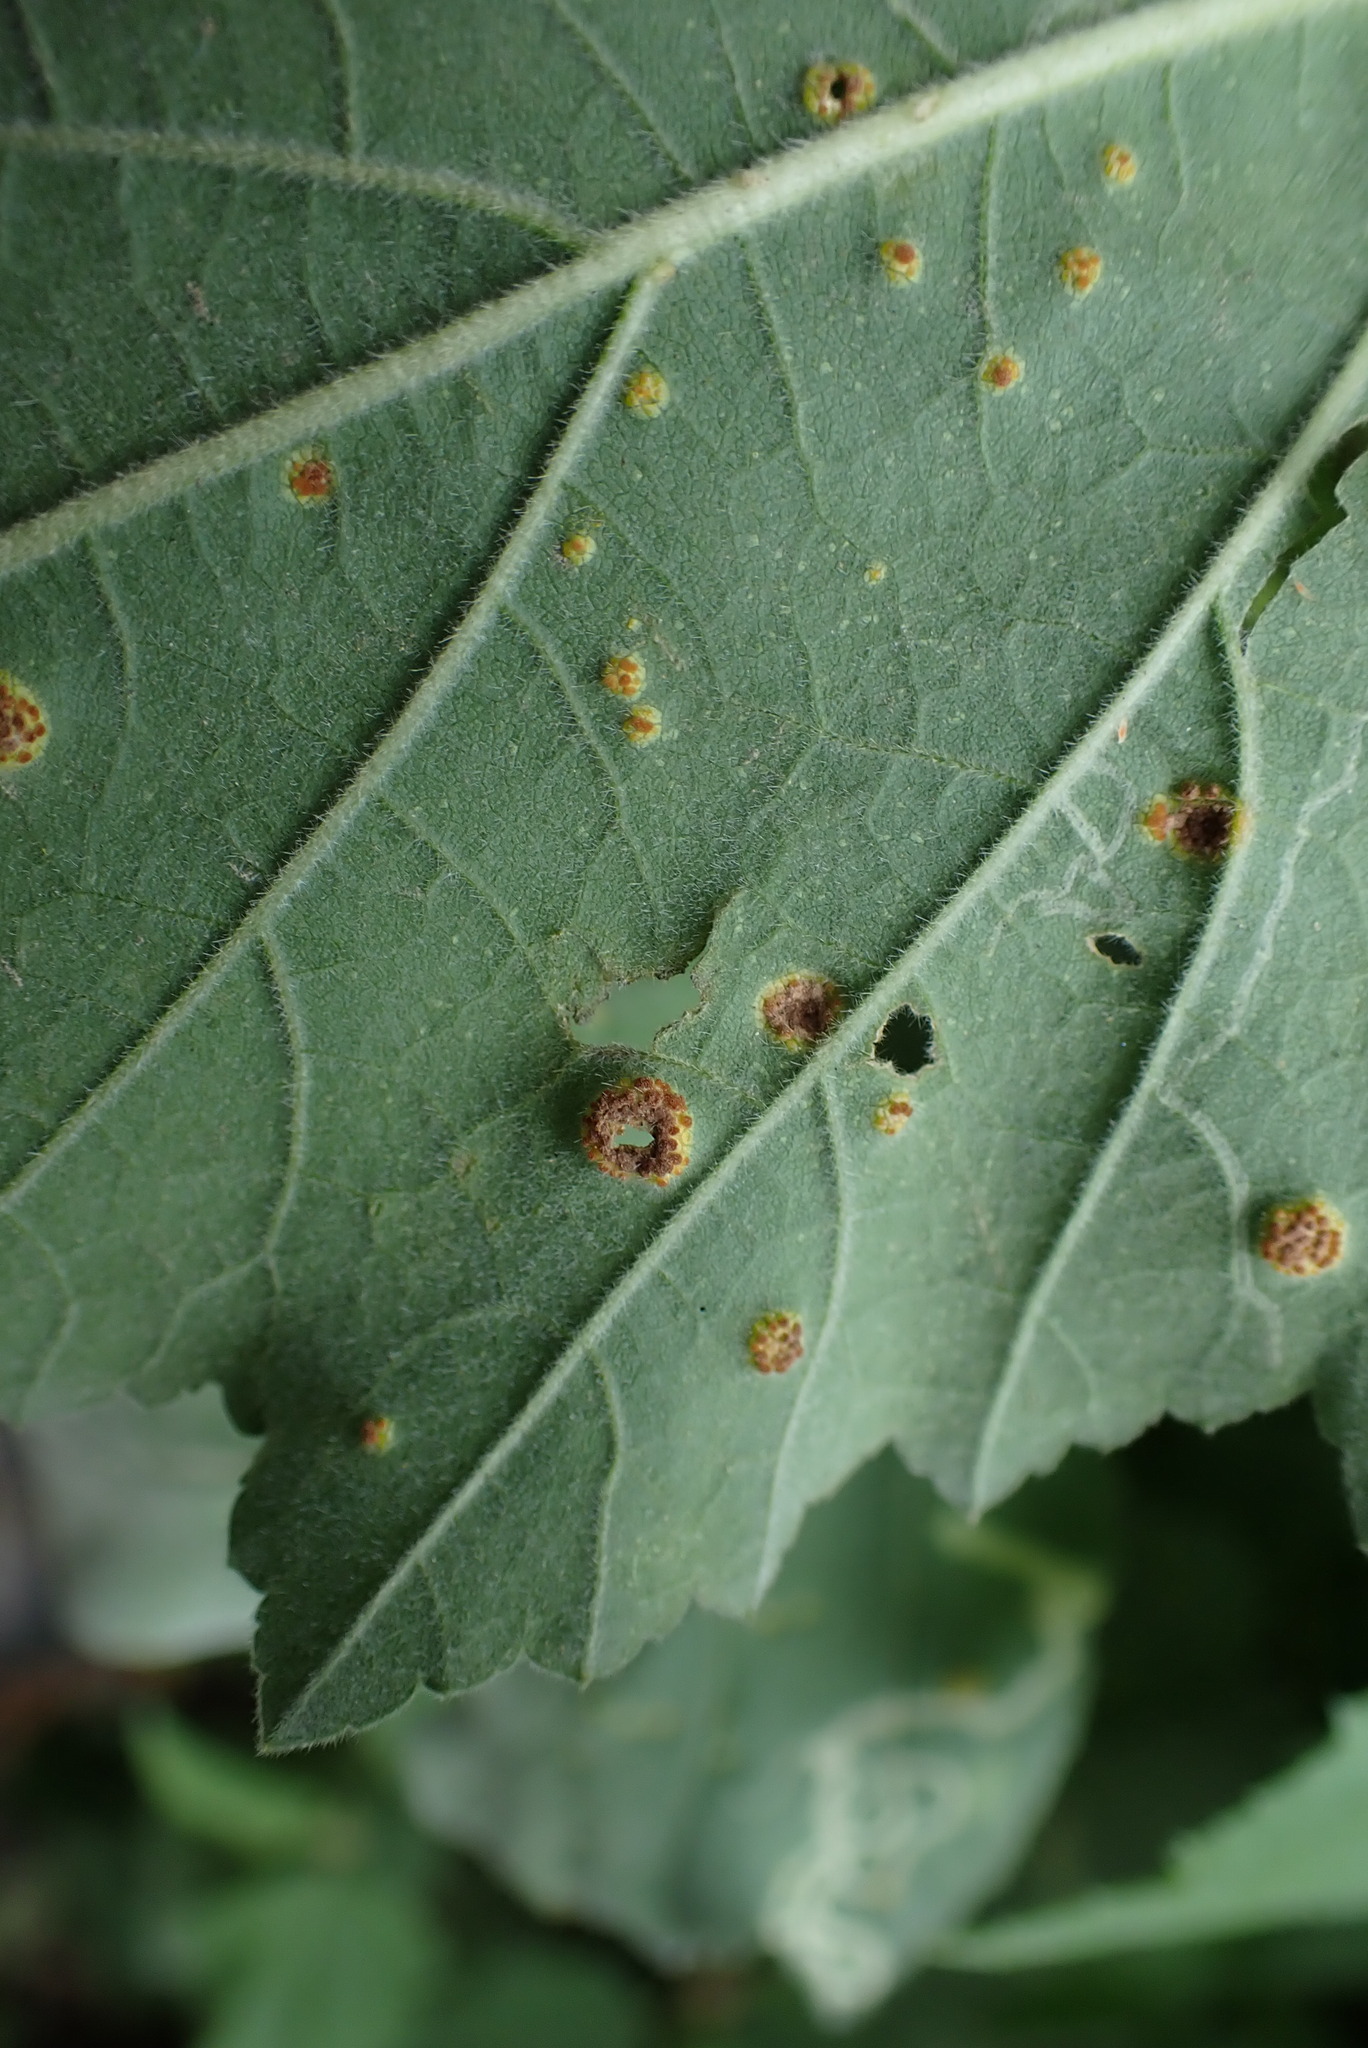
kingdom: Fungi
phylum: Basidiomycota
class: Pucciniomycetes
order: Pucciniales
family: Pucciniaceae
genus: Puccinia
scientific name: Puccinia malvacearum
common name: Hollyhock rust
